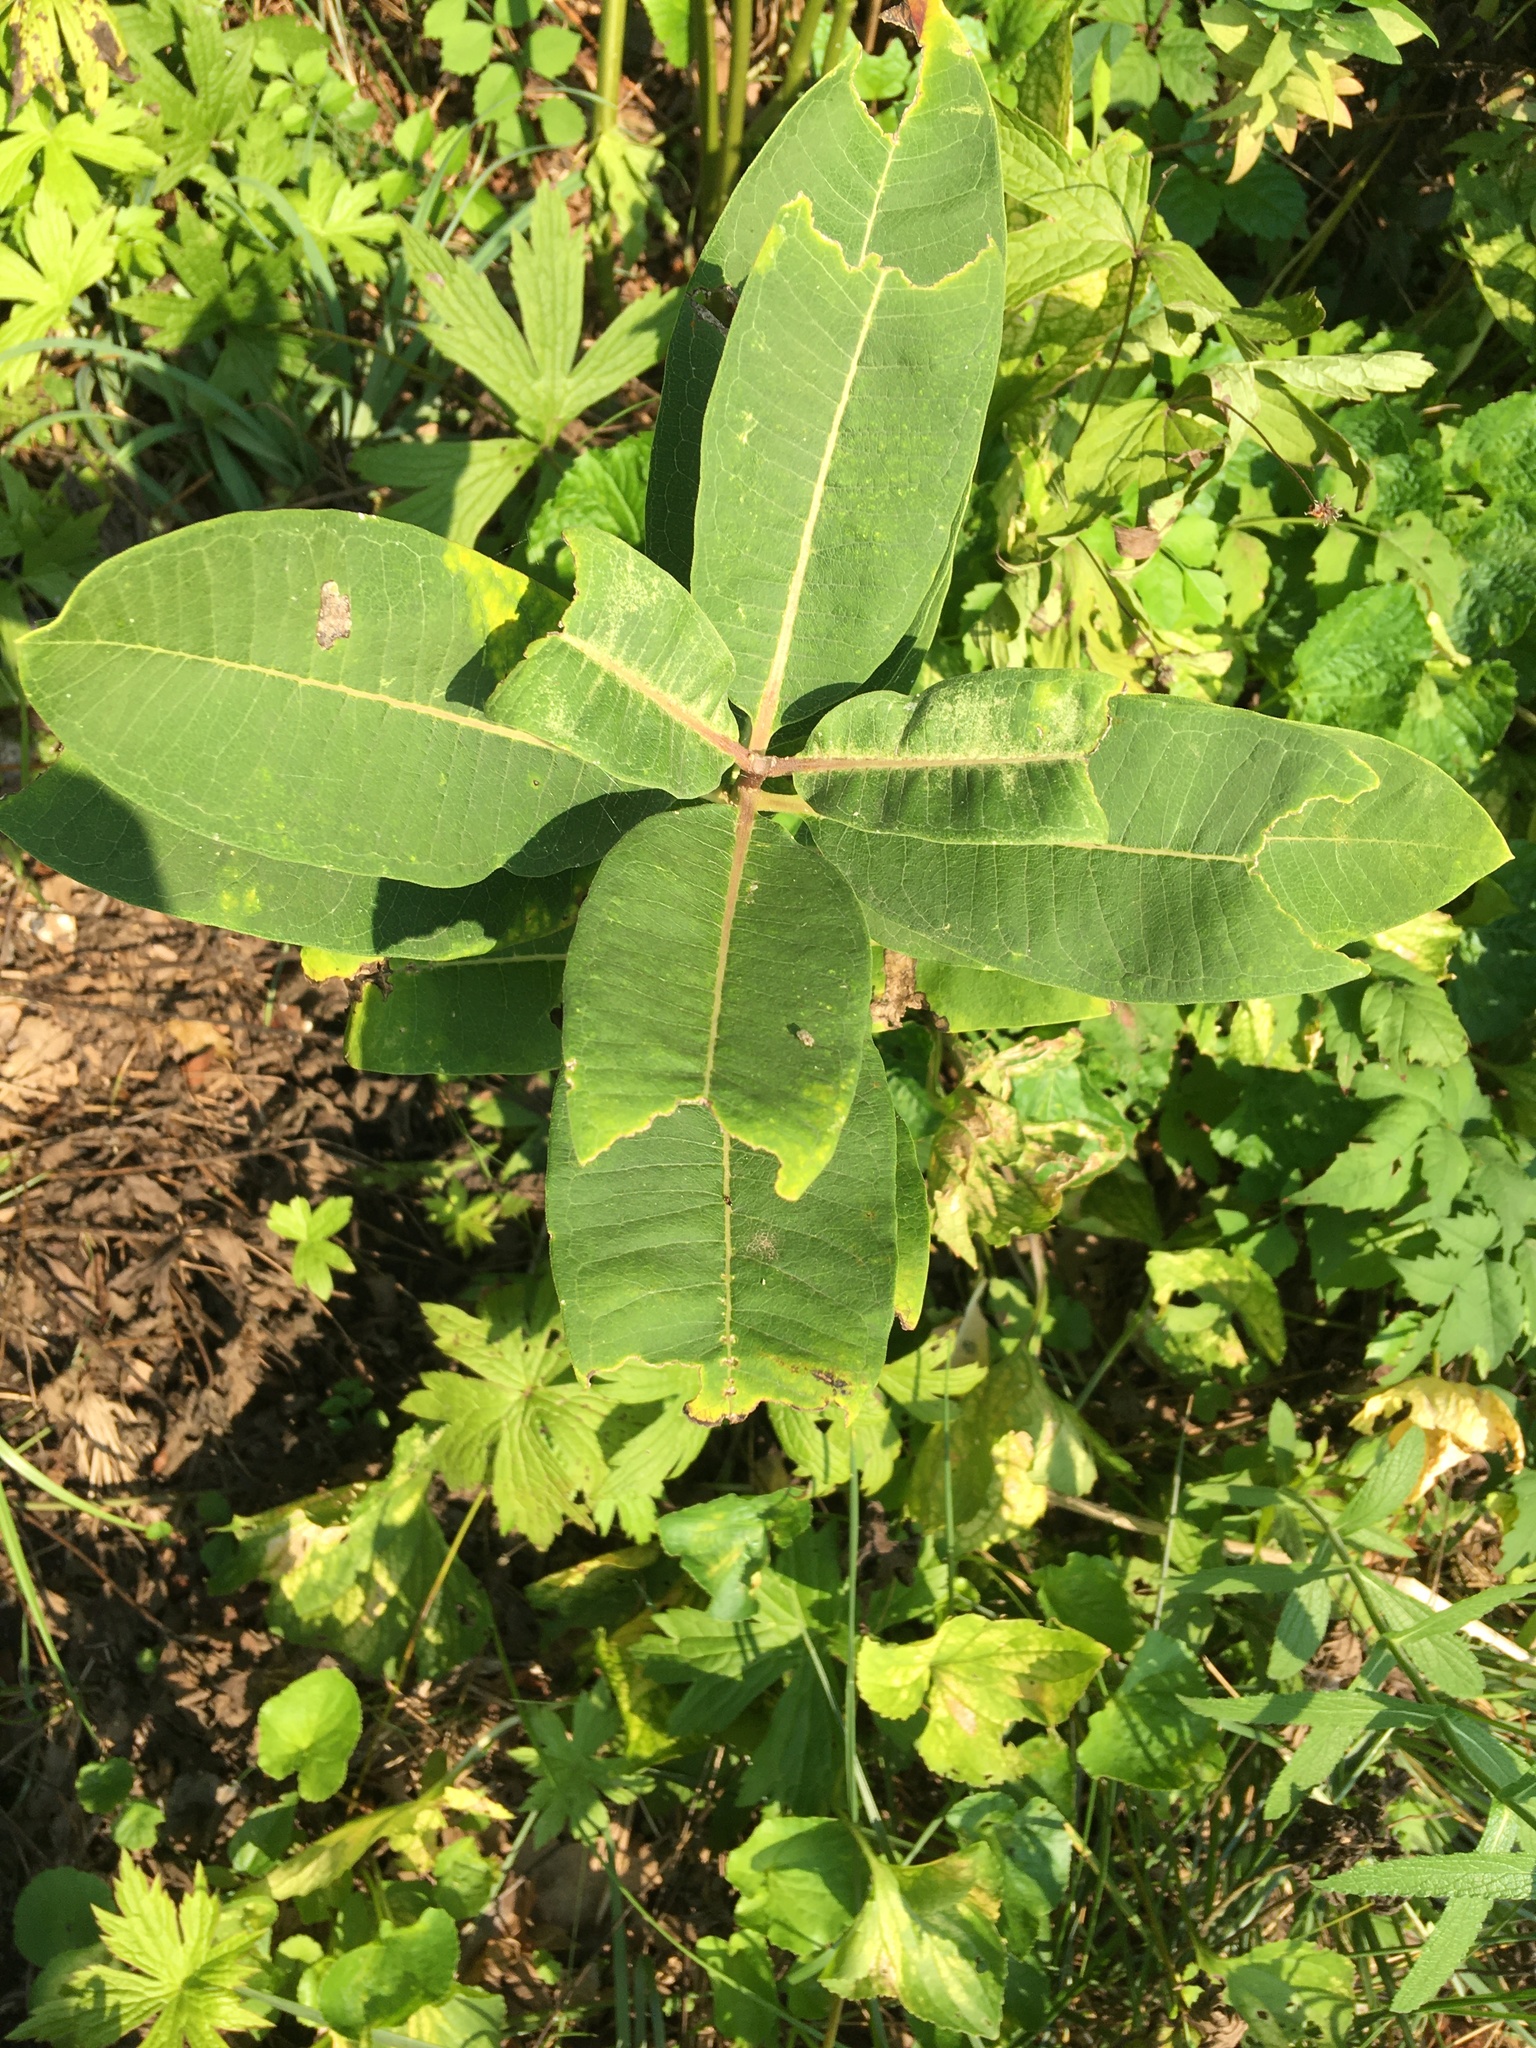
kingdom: Plantae
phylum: Tracheophyta
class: Magnoliopsida
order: Gentianales
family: Apocynaceae
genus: Asclepias
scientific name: Asclepias syriaca
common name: Common milkweed
